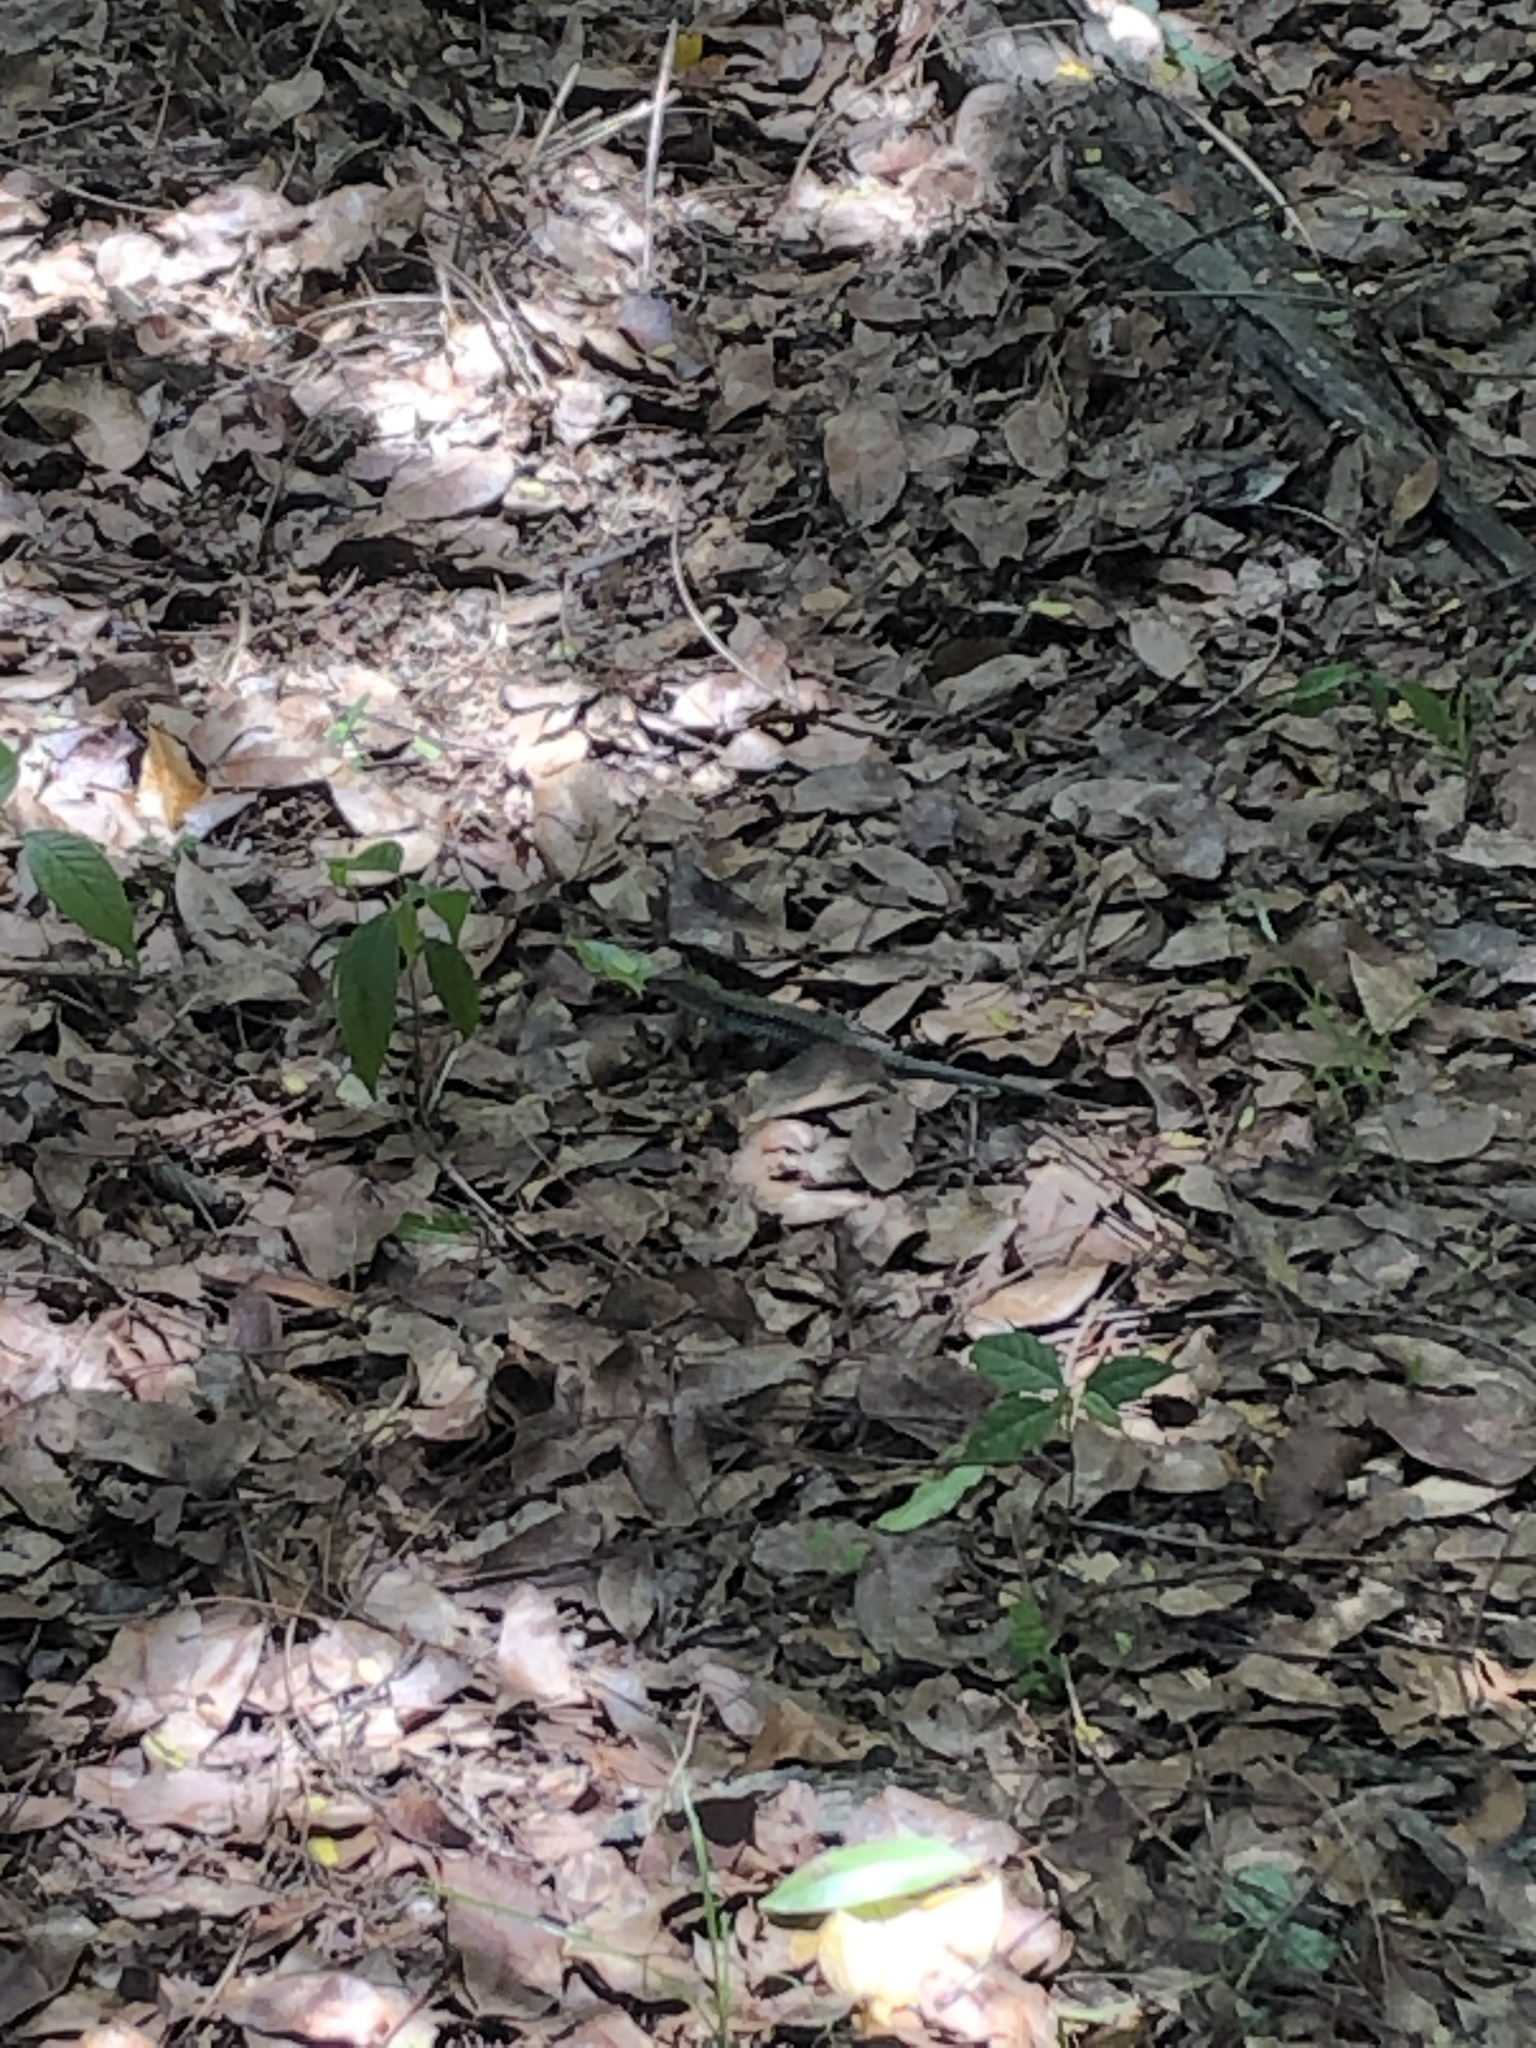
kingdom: Animalia
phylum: Chordata
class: Squamata
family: Teiidae
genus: Pholidoscelis
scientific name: Pholidoscelis exsul
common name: Common puerto rican ameiva
